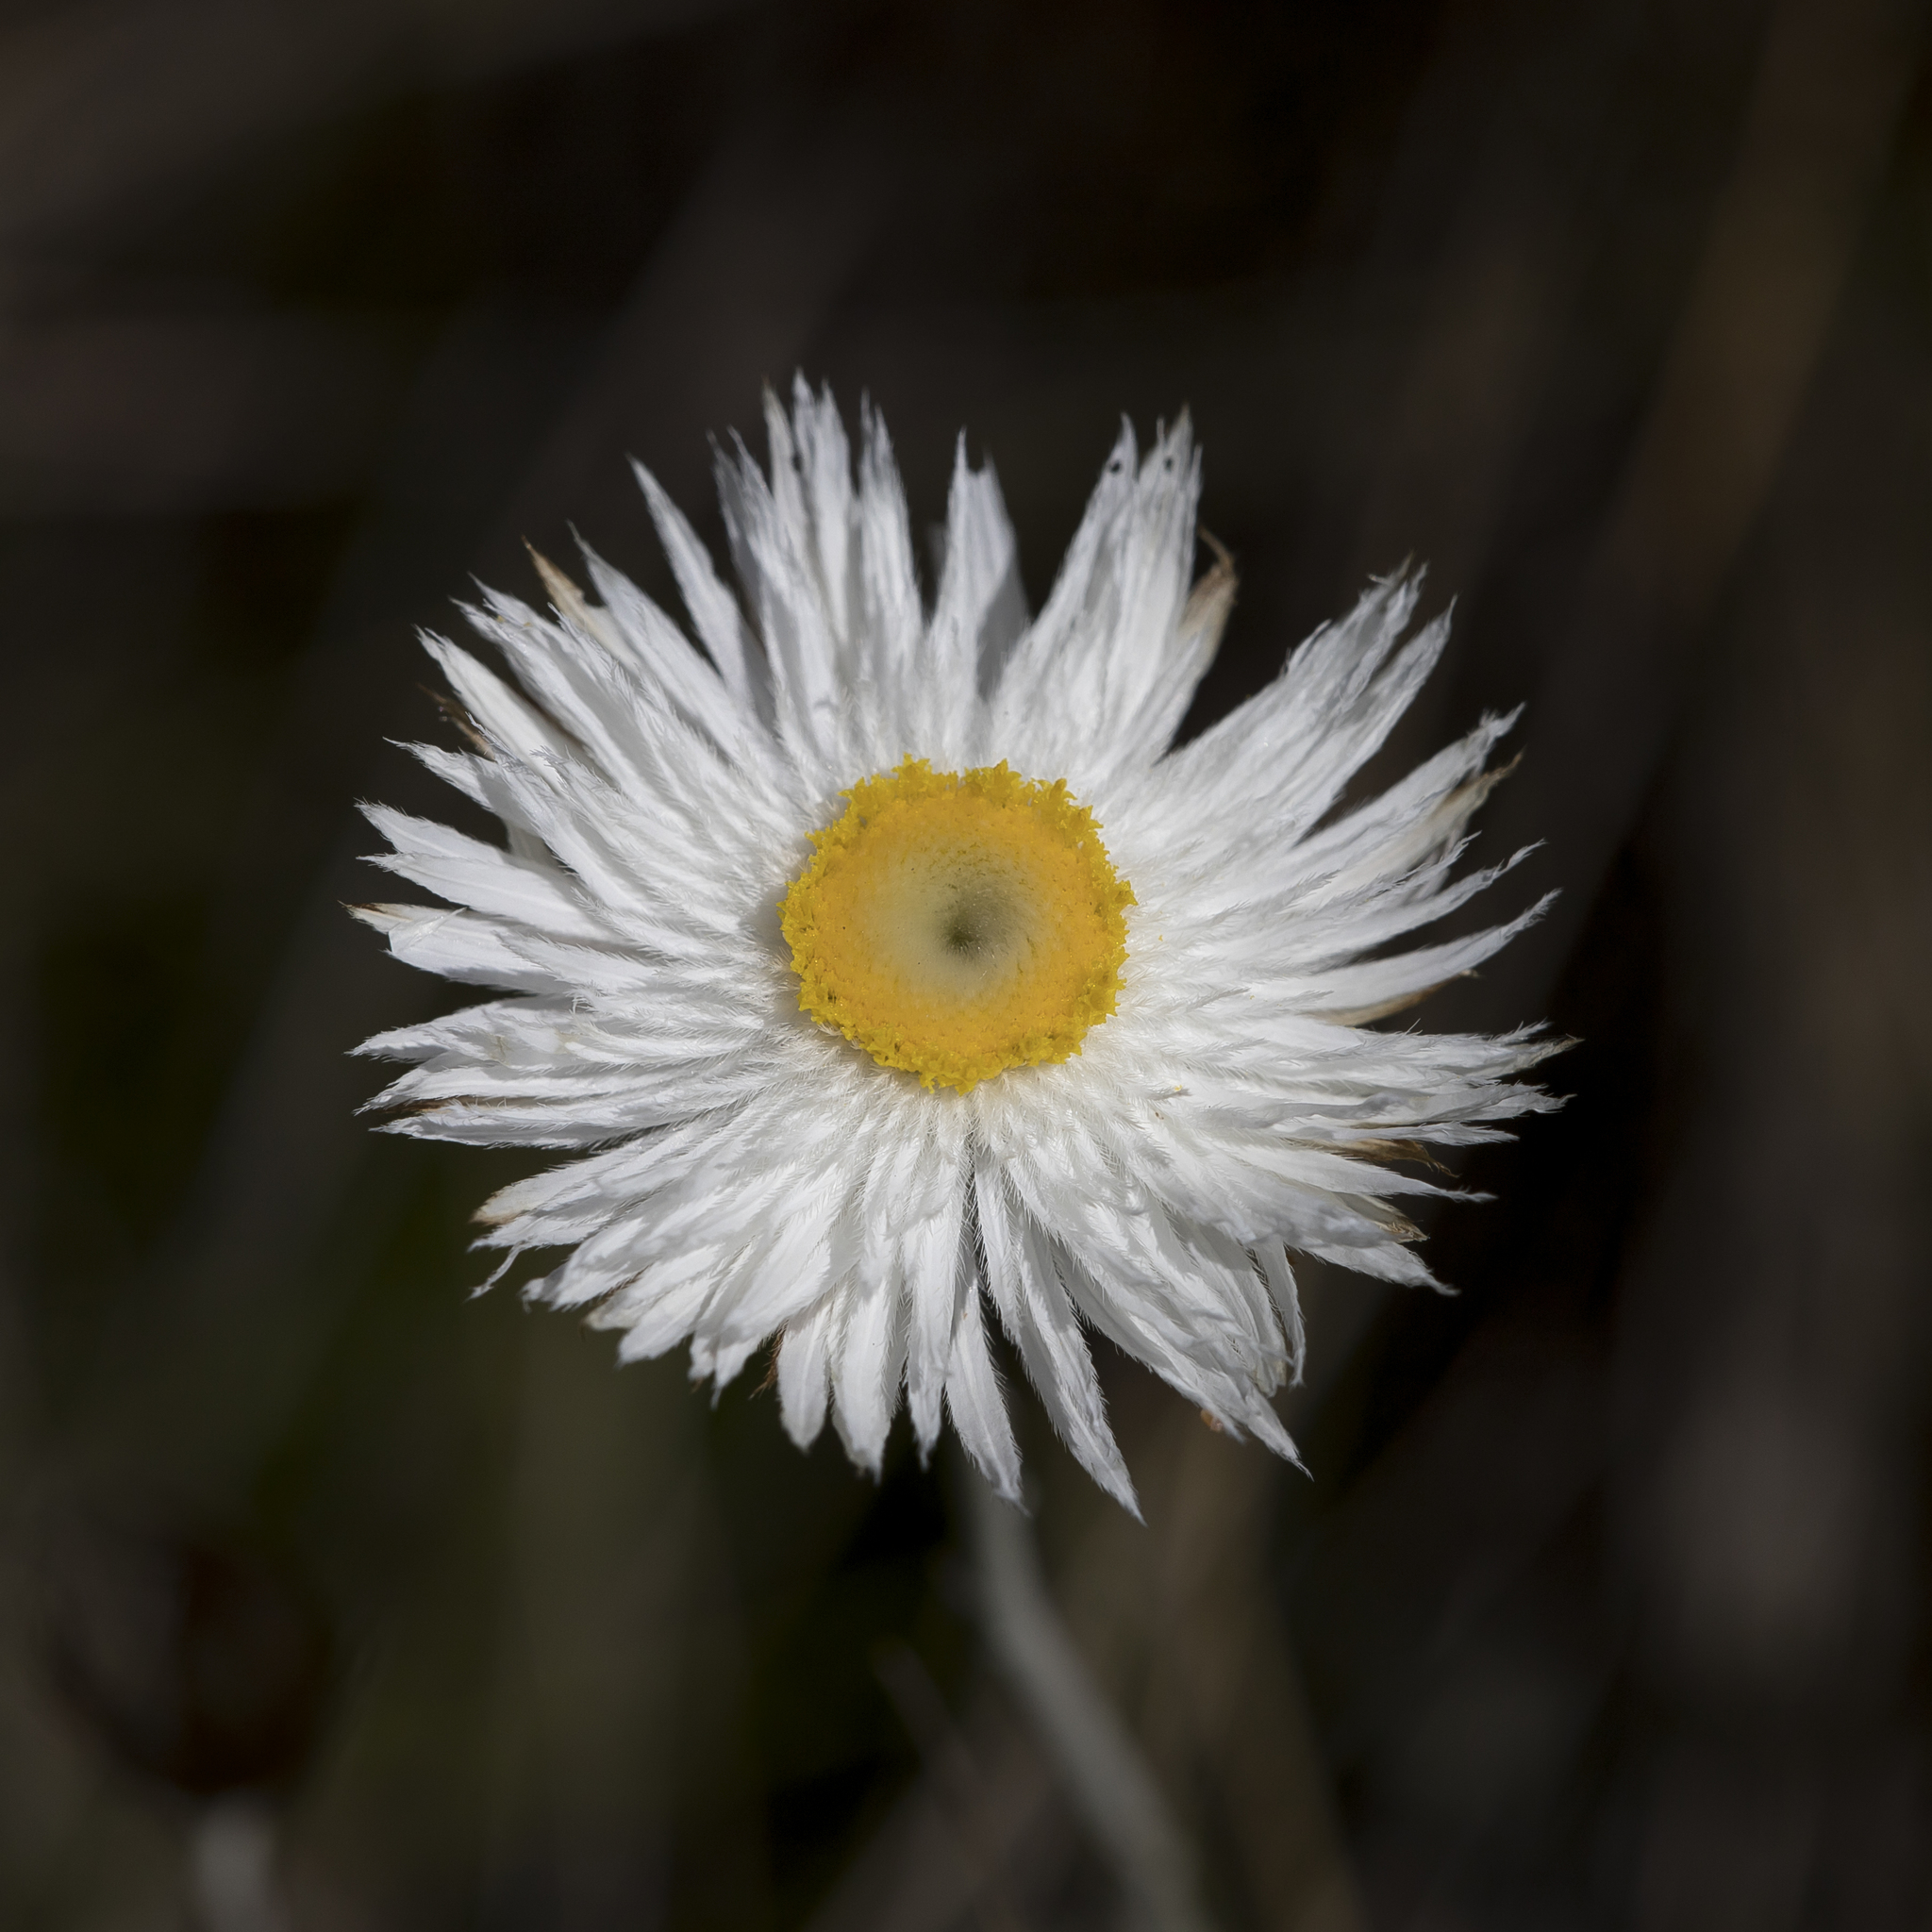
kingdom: Plantae
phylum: Tracheophyta
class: Magnoliopsida
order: Asterales
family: Asteraceae
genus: Chrysocephalum
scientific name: Chrysocephalum baxteri
